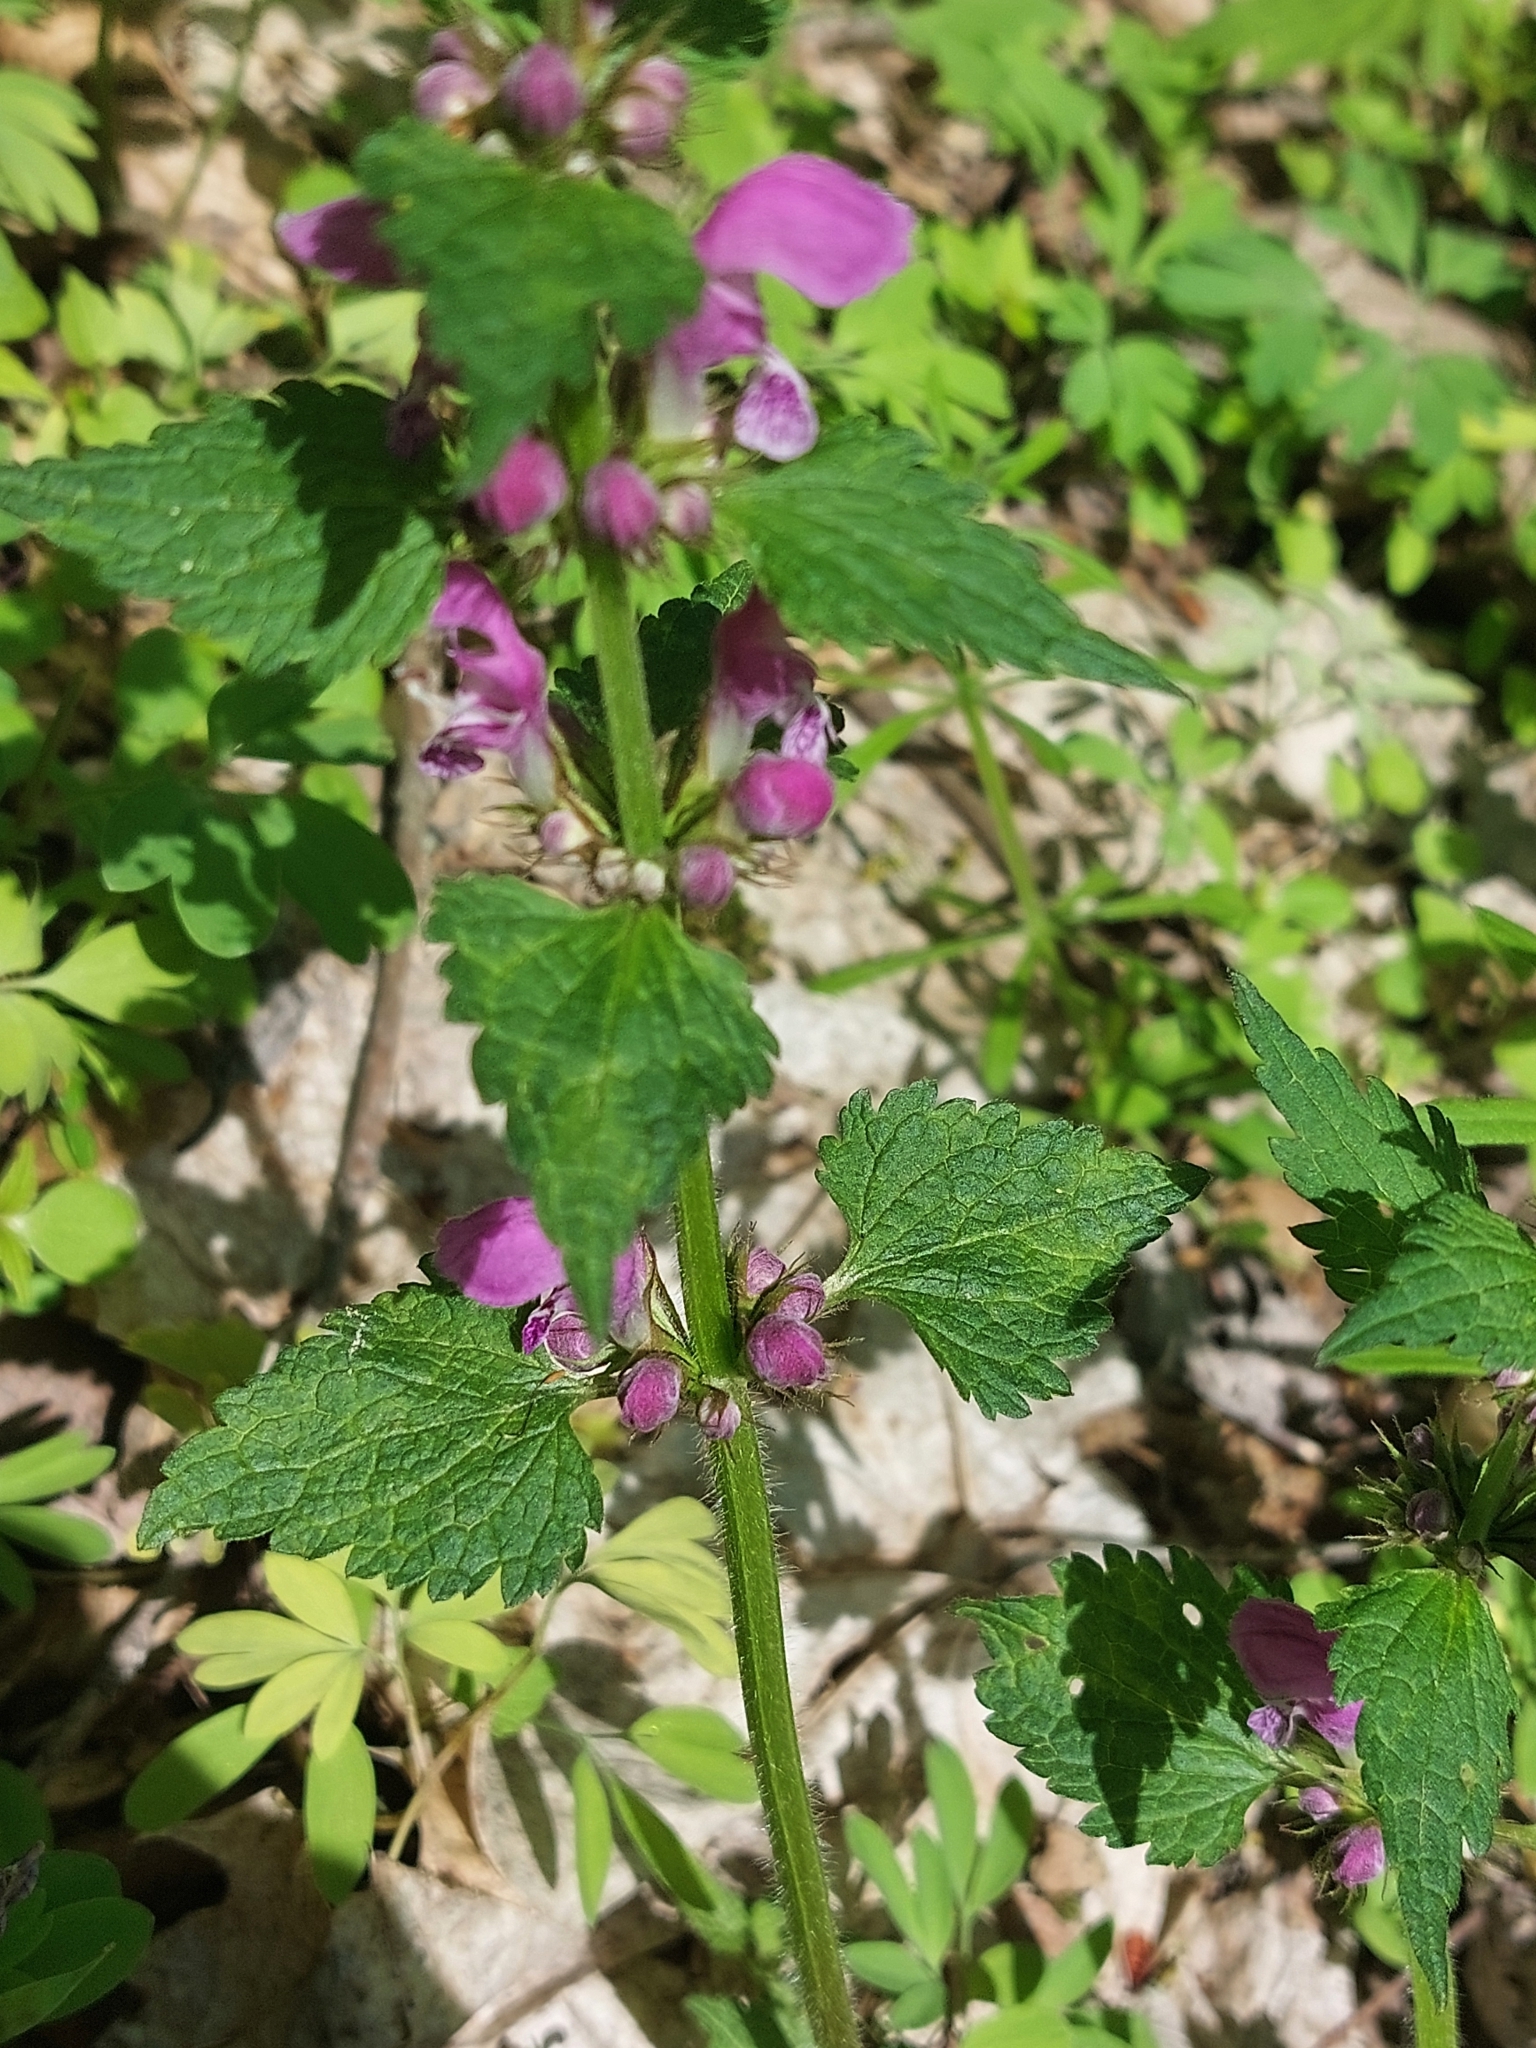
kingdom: Plantae
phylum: Tracheophyta
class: Magnoliopsida
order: Lamiales
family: Lamiaceae
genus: Lamium
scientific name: Lamium maculatum
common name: Spotted dead-nettle
